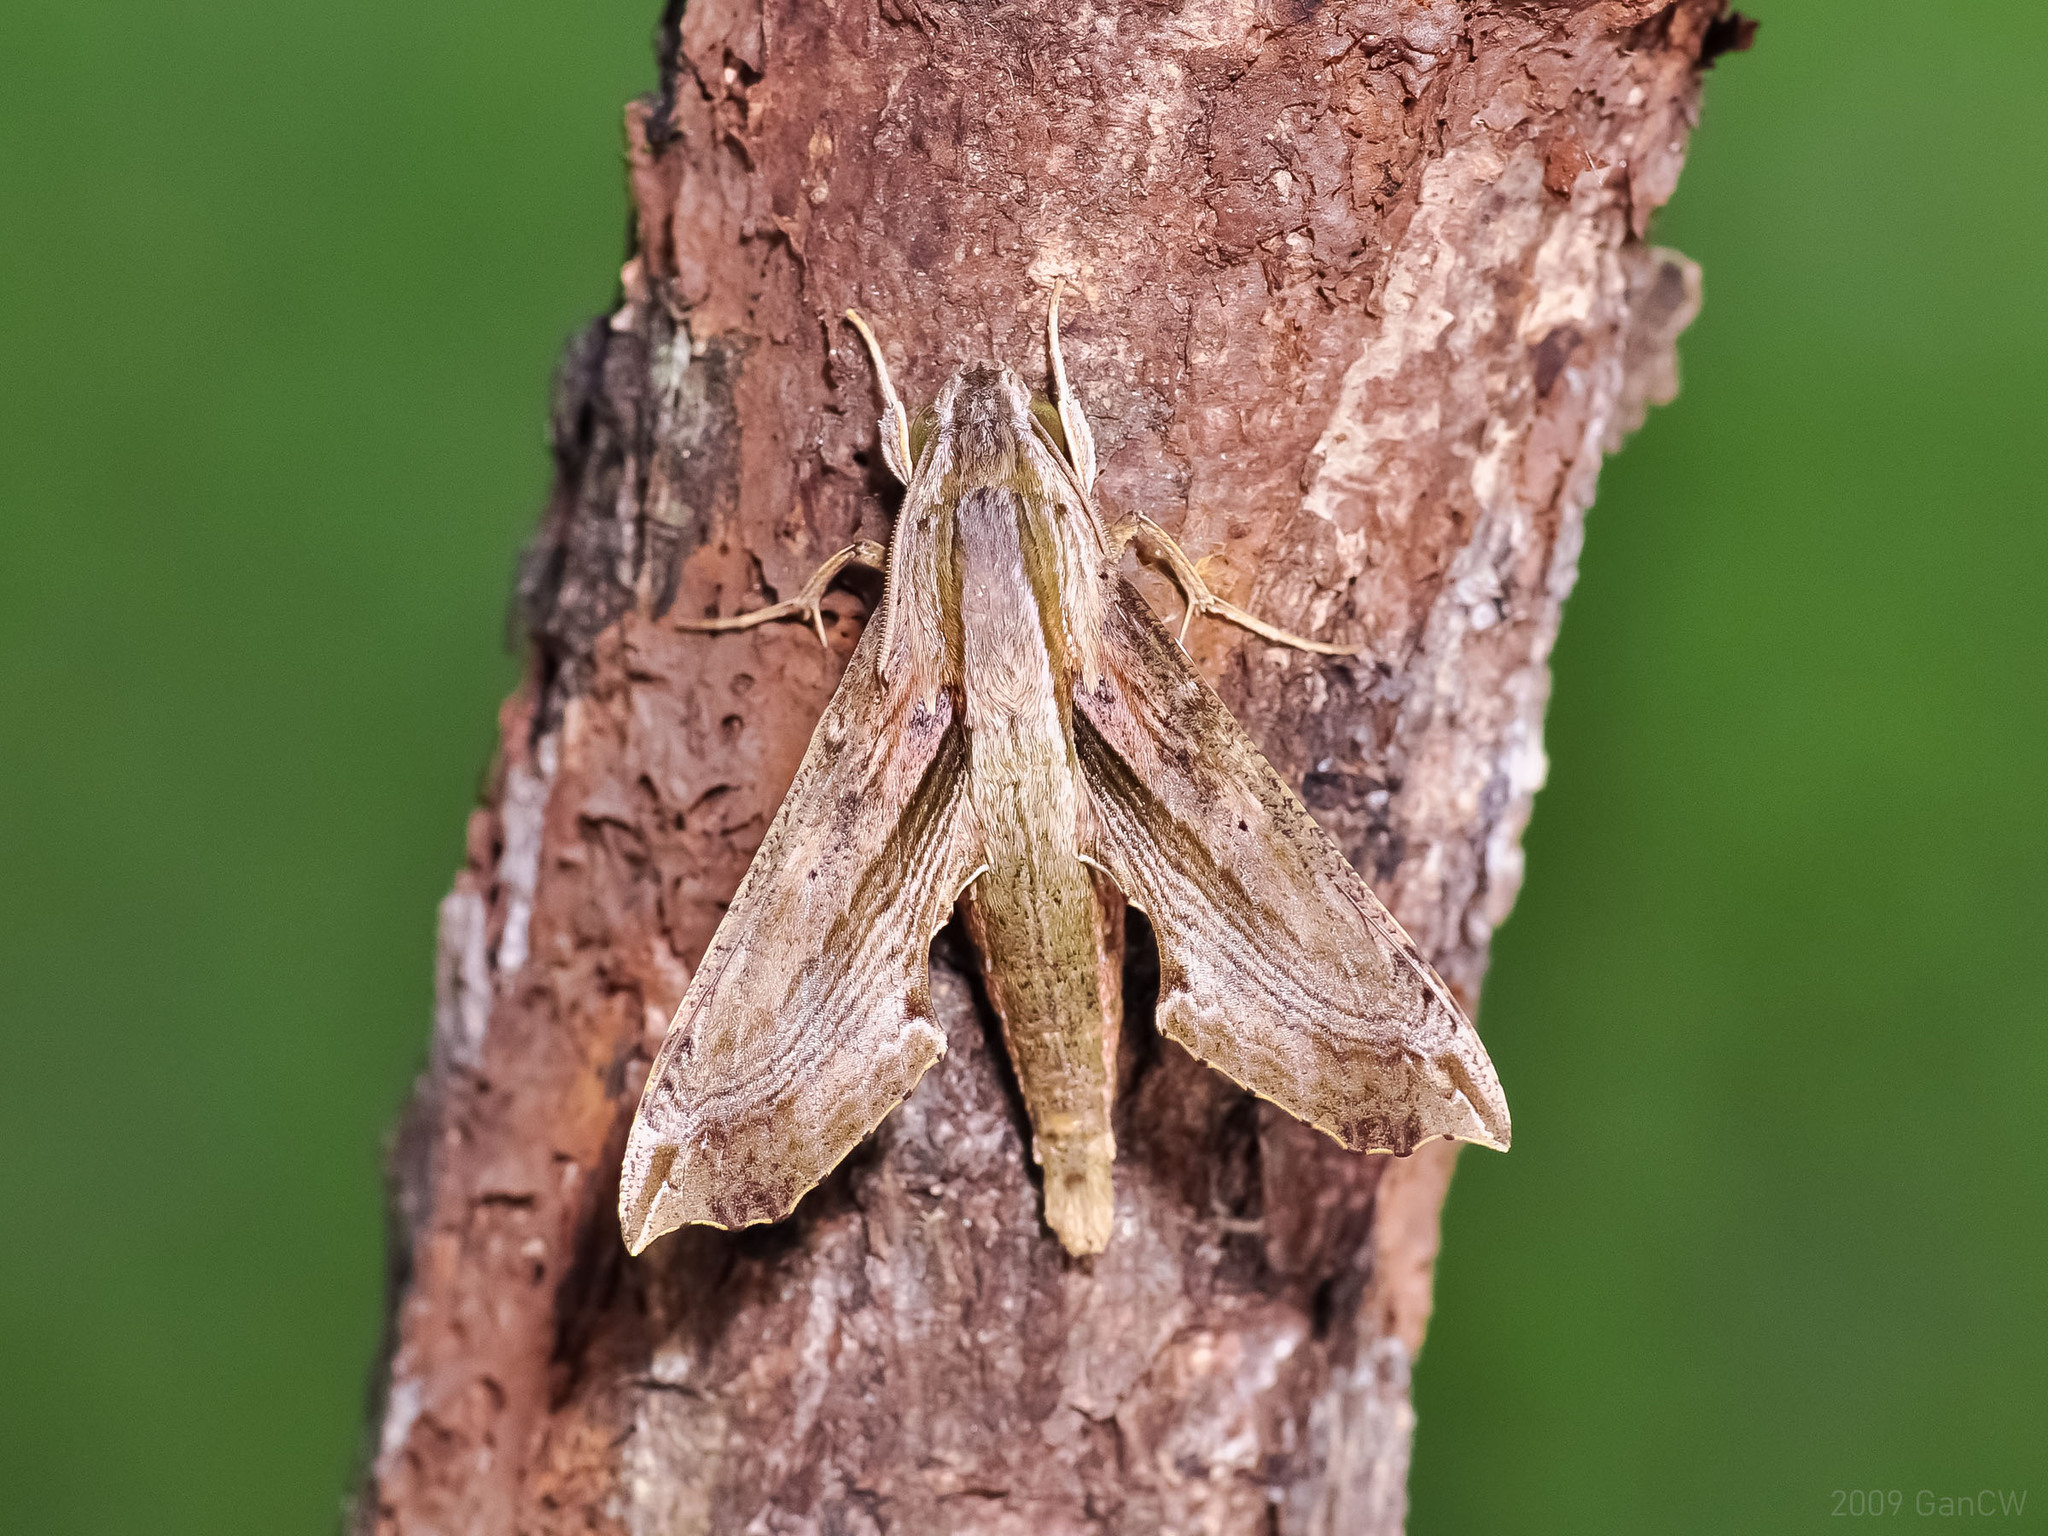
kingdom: Animalia
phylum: Arthropoda
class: Insecta
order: Lepidoptera
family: Sphingidae
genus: Eupanacra
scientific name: Eupanacra regularis
